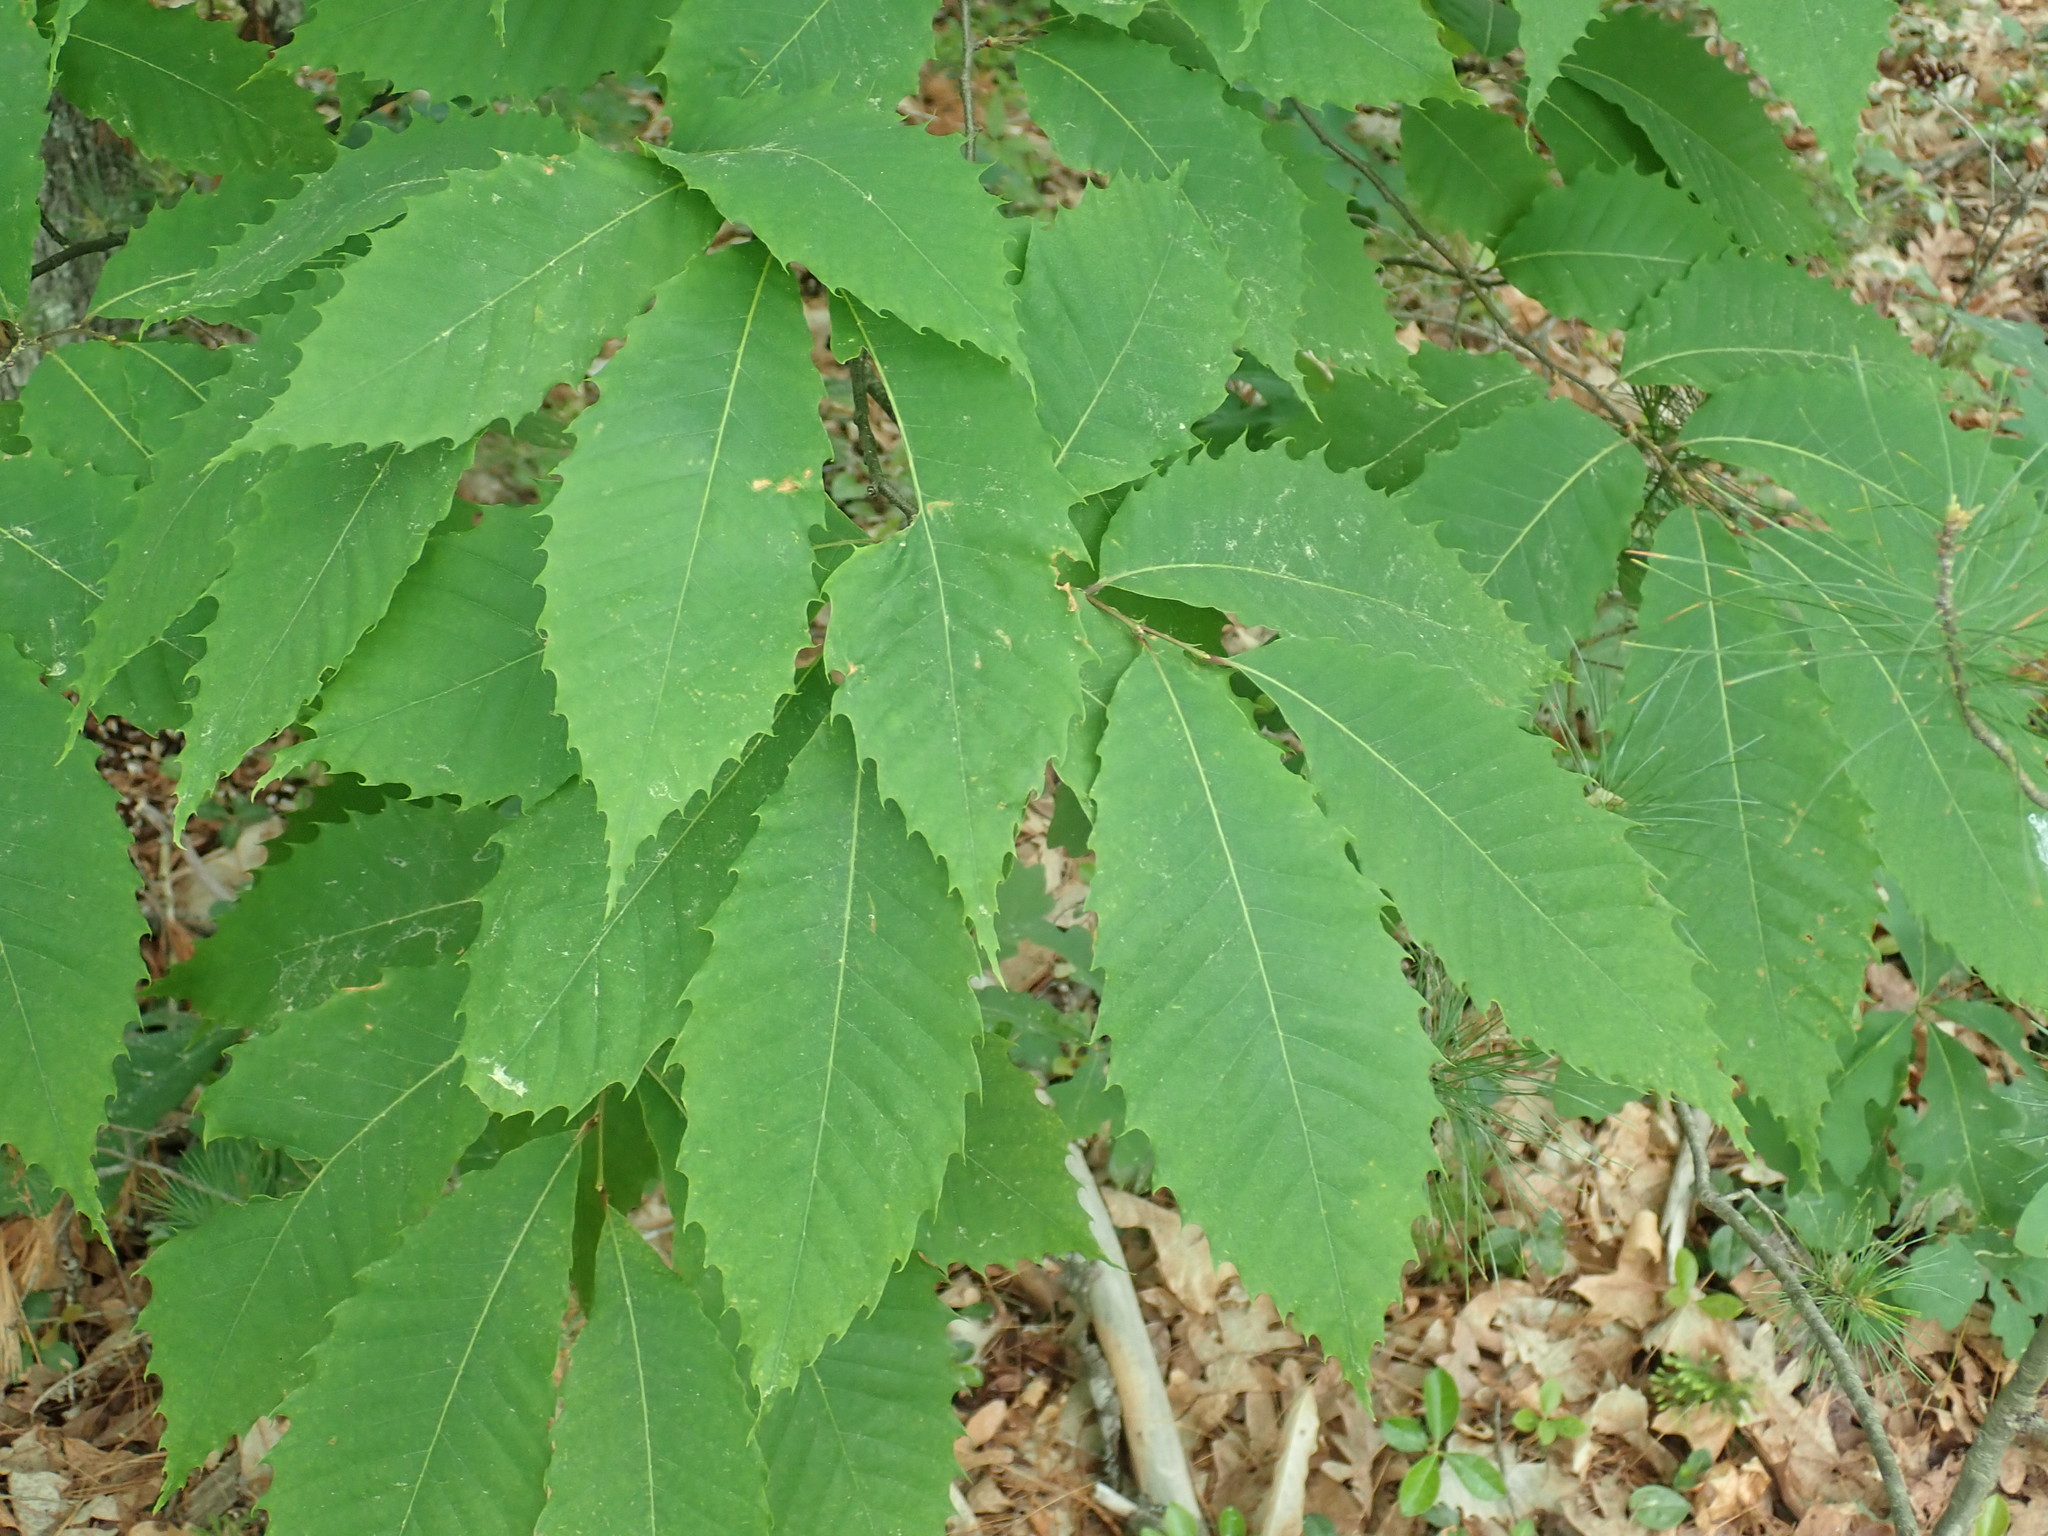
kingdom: Plantae
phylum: Tracheophyta
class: Magnoliopsida
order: Fagales
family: Fagaceae
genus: Castanea
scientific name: Castanea dentata
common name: American chestnut
